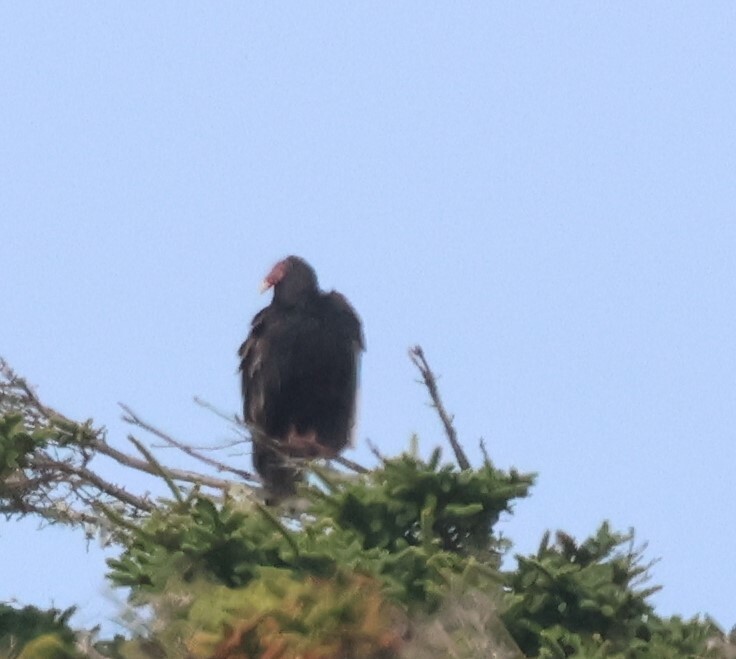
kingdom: Animalia
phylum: Chordata
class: Aves
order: Accipitriformes
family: Cathartidae
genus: Cathartes
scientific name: Cathartes aura
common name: Turkey vulture
